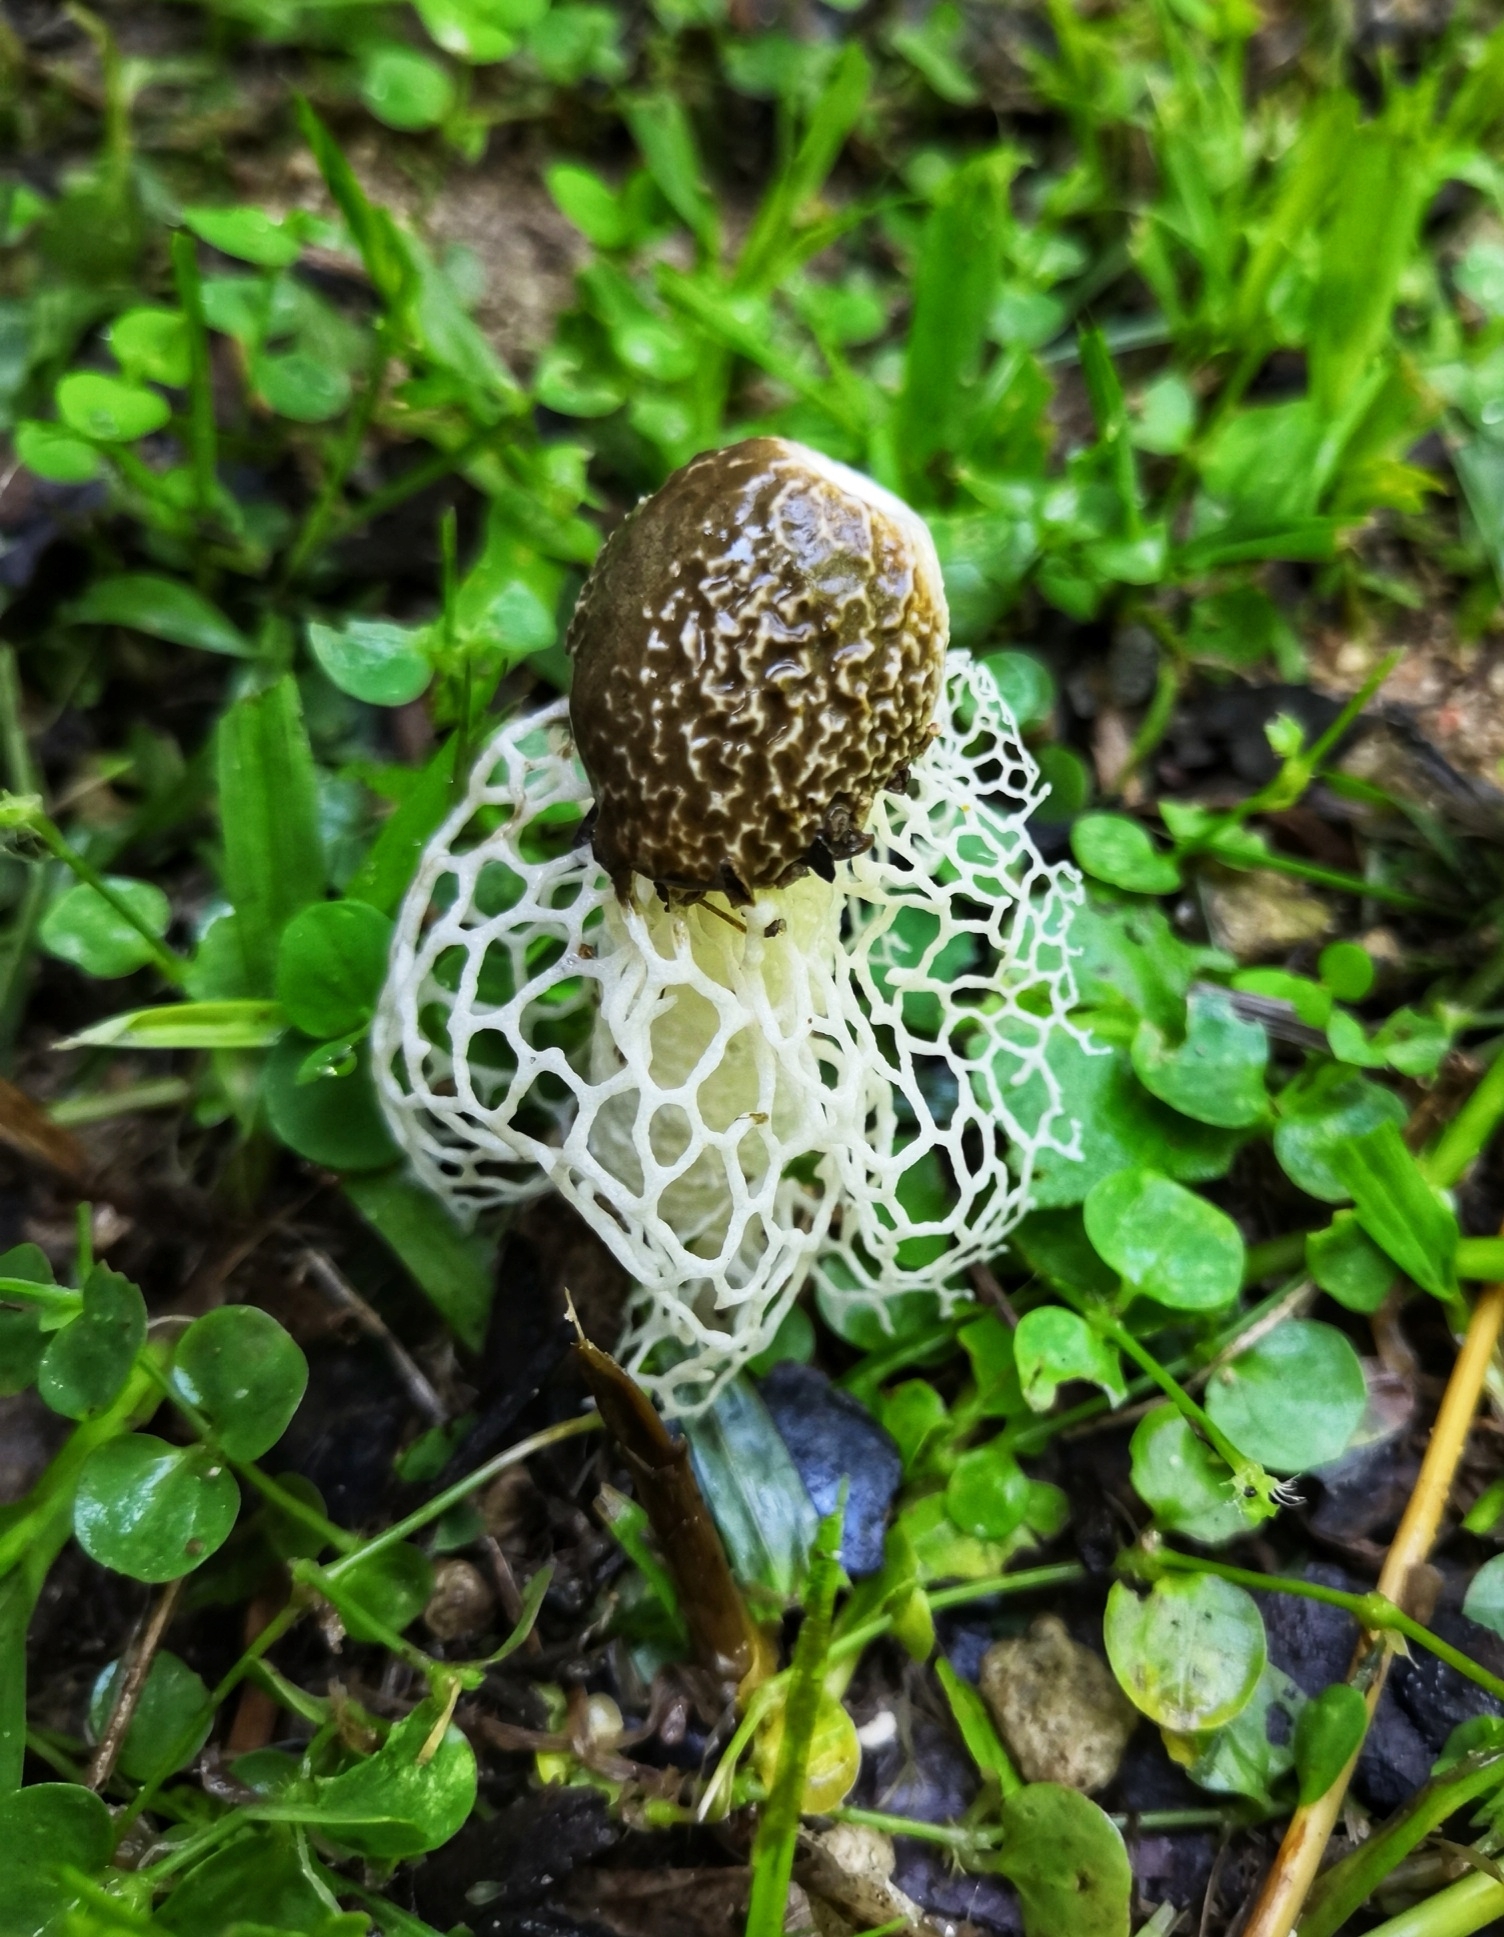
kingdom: Fungi
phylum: Basidiomycota
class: Agaricomycetes
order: Phallales
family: Phallaceae
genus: Phallus
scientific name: Phallus indusiatus
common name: Bridal veil stinkhorn
